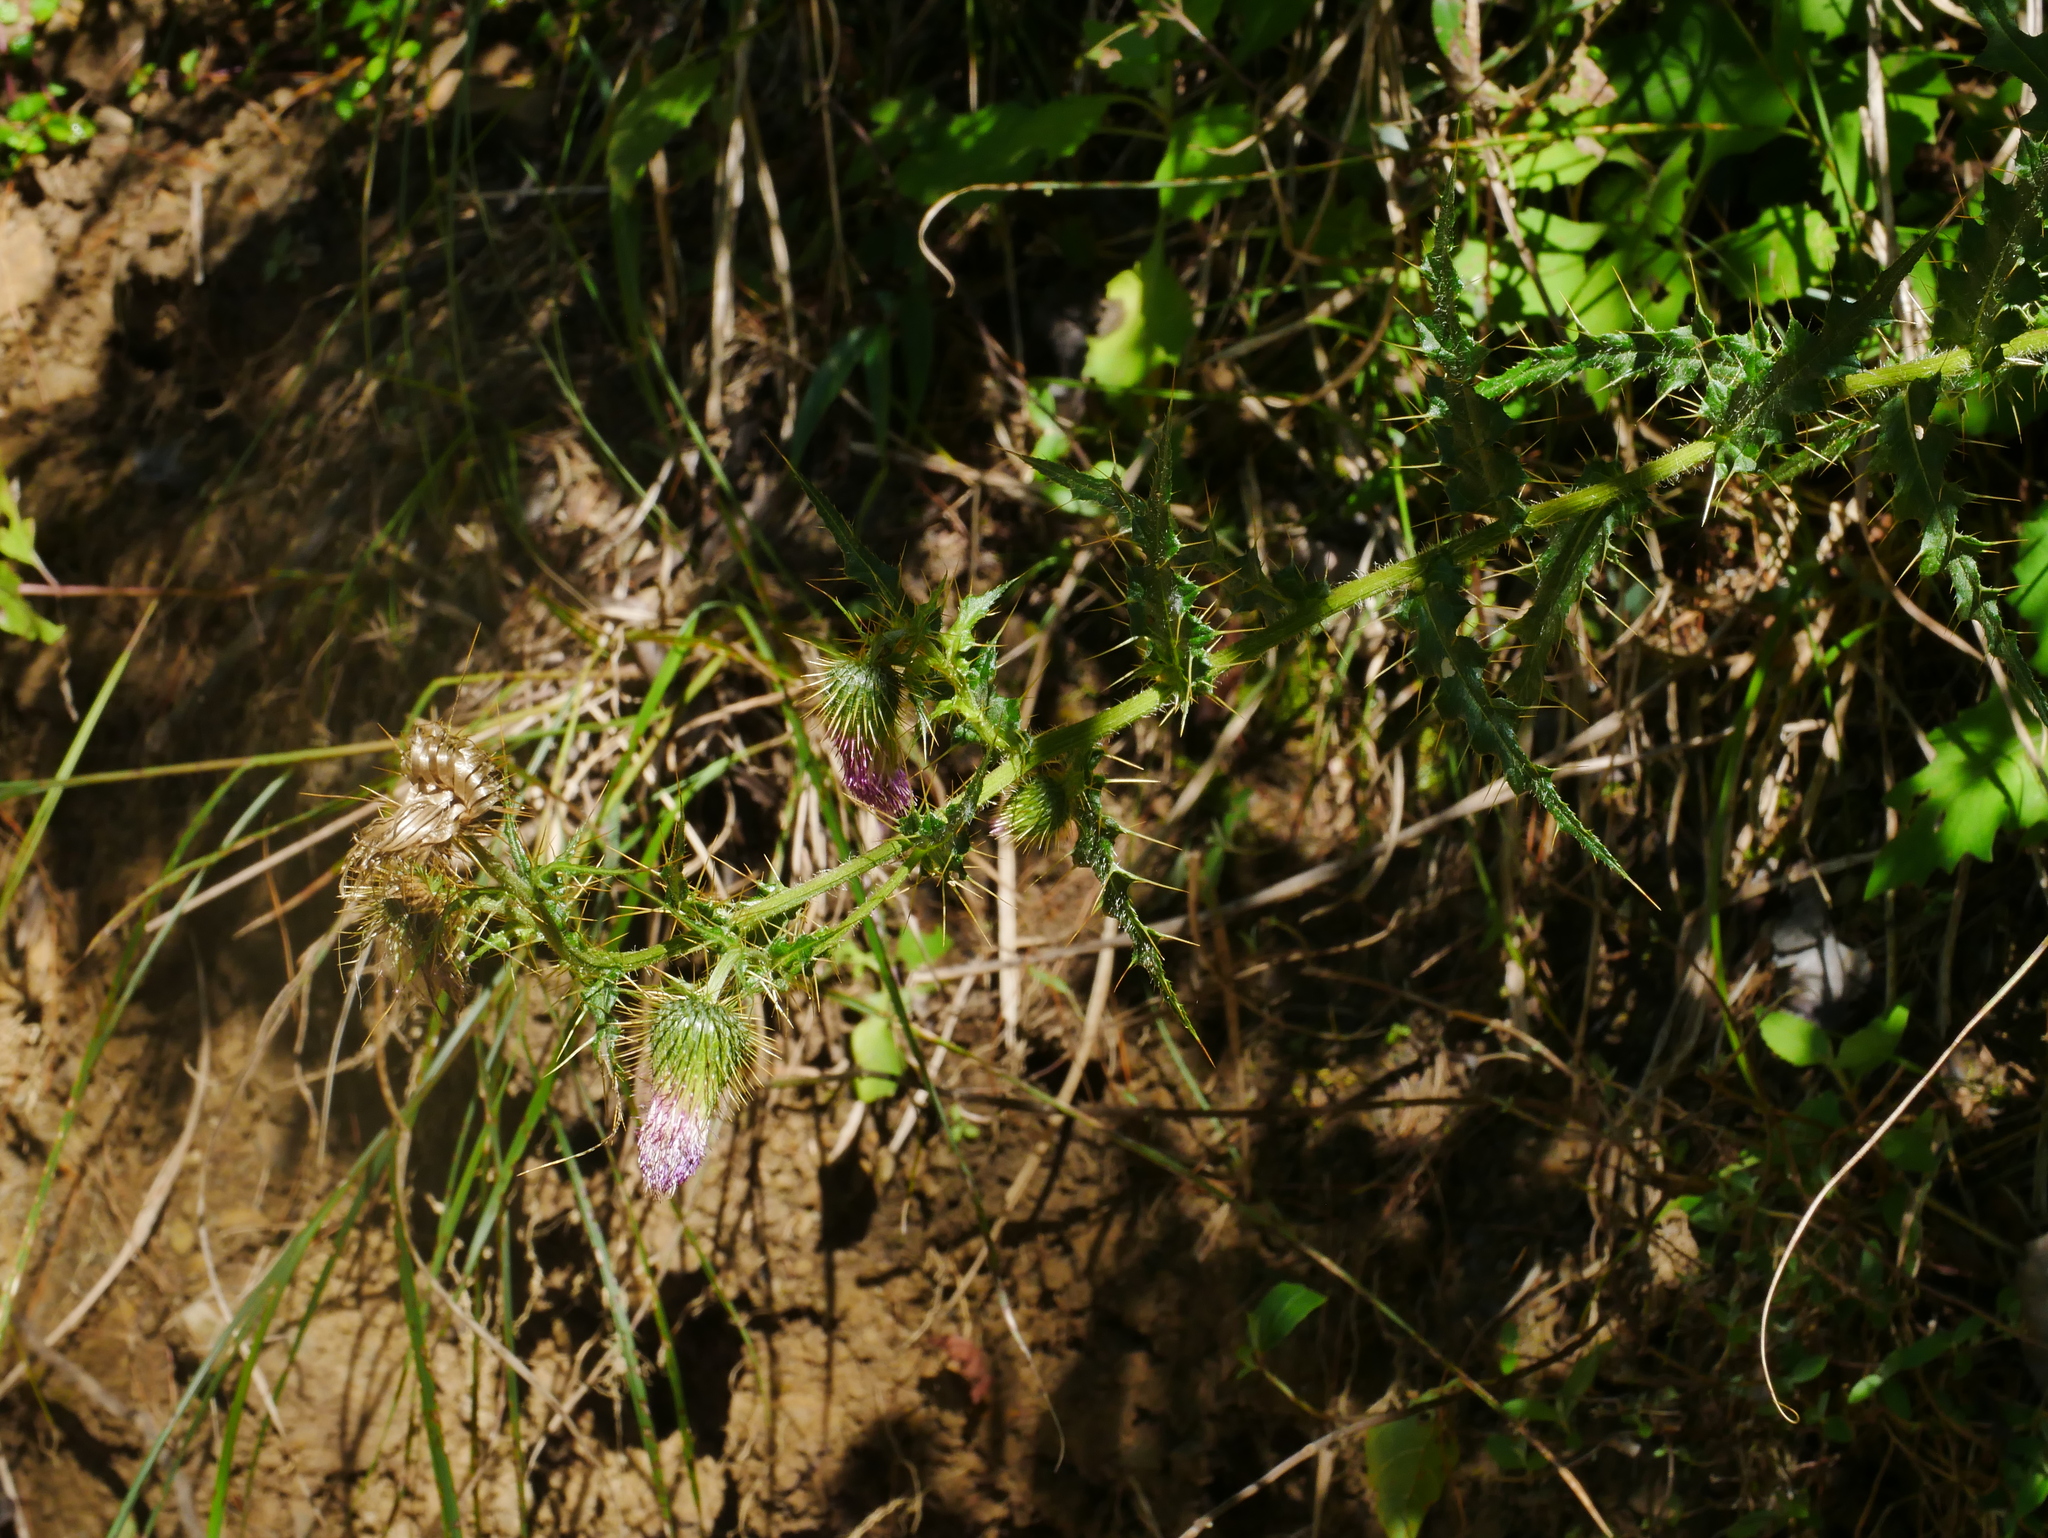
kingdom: Plantae
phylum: Tracheophyta
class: Magnoliopsida
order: Asterales
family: Asteraceae
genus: Cirsium
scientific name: Cirsium ferum
